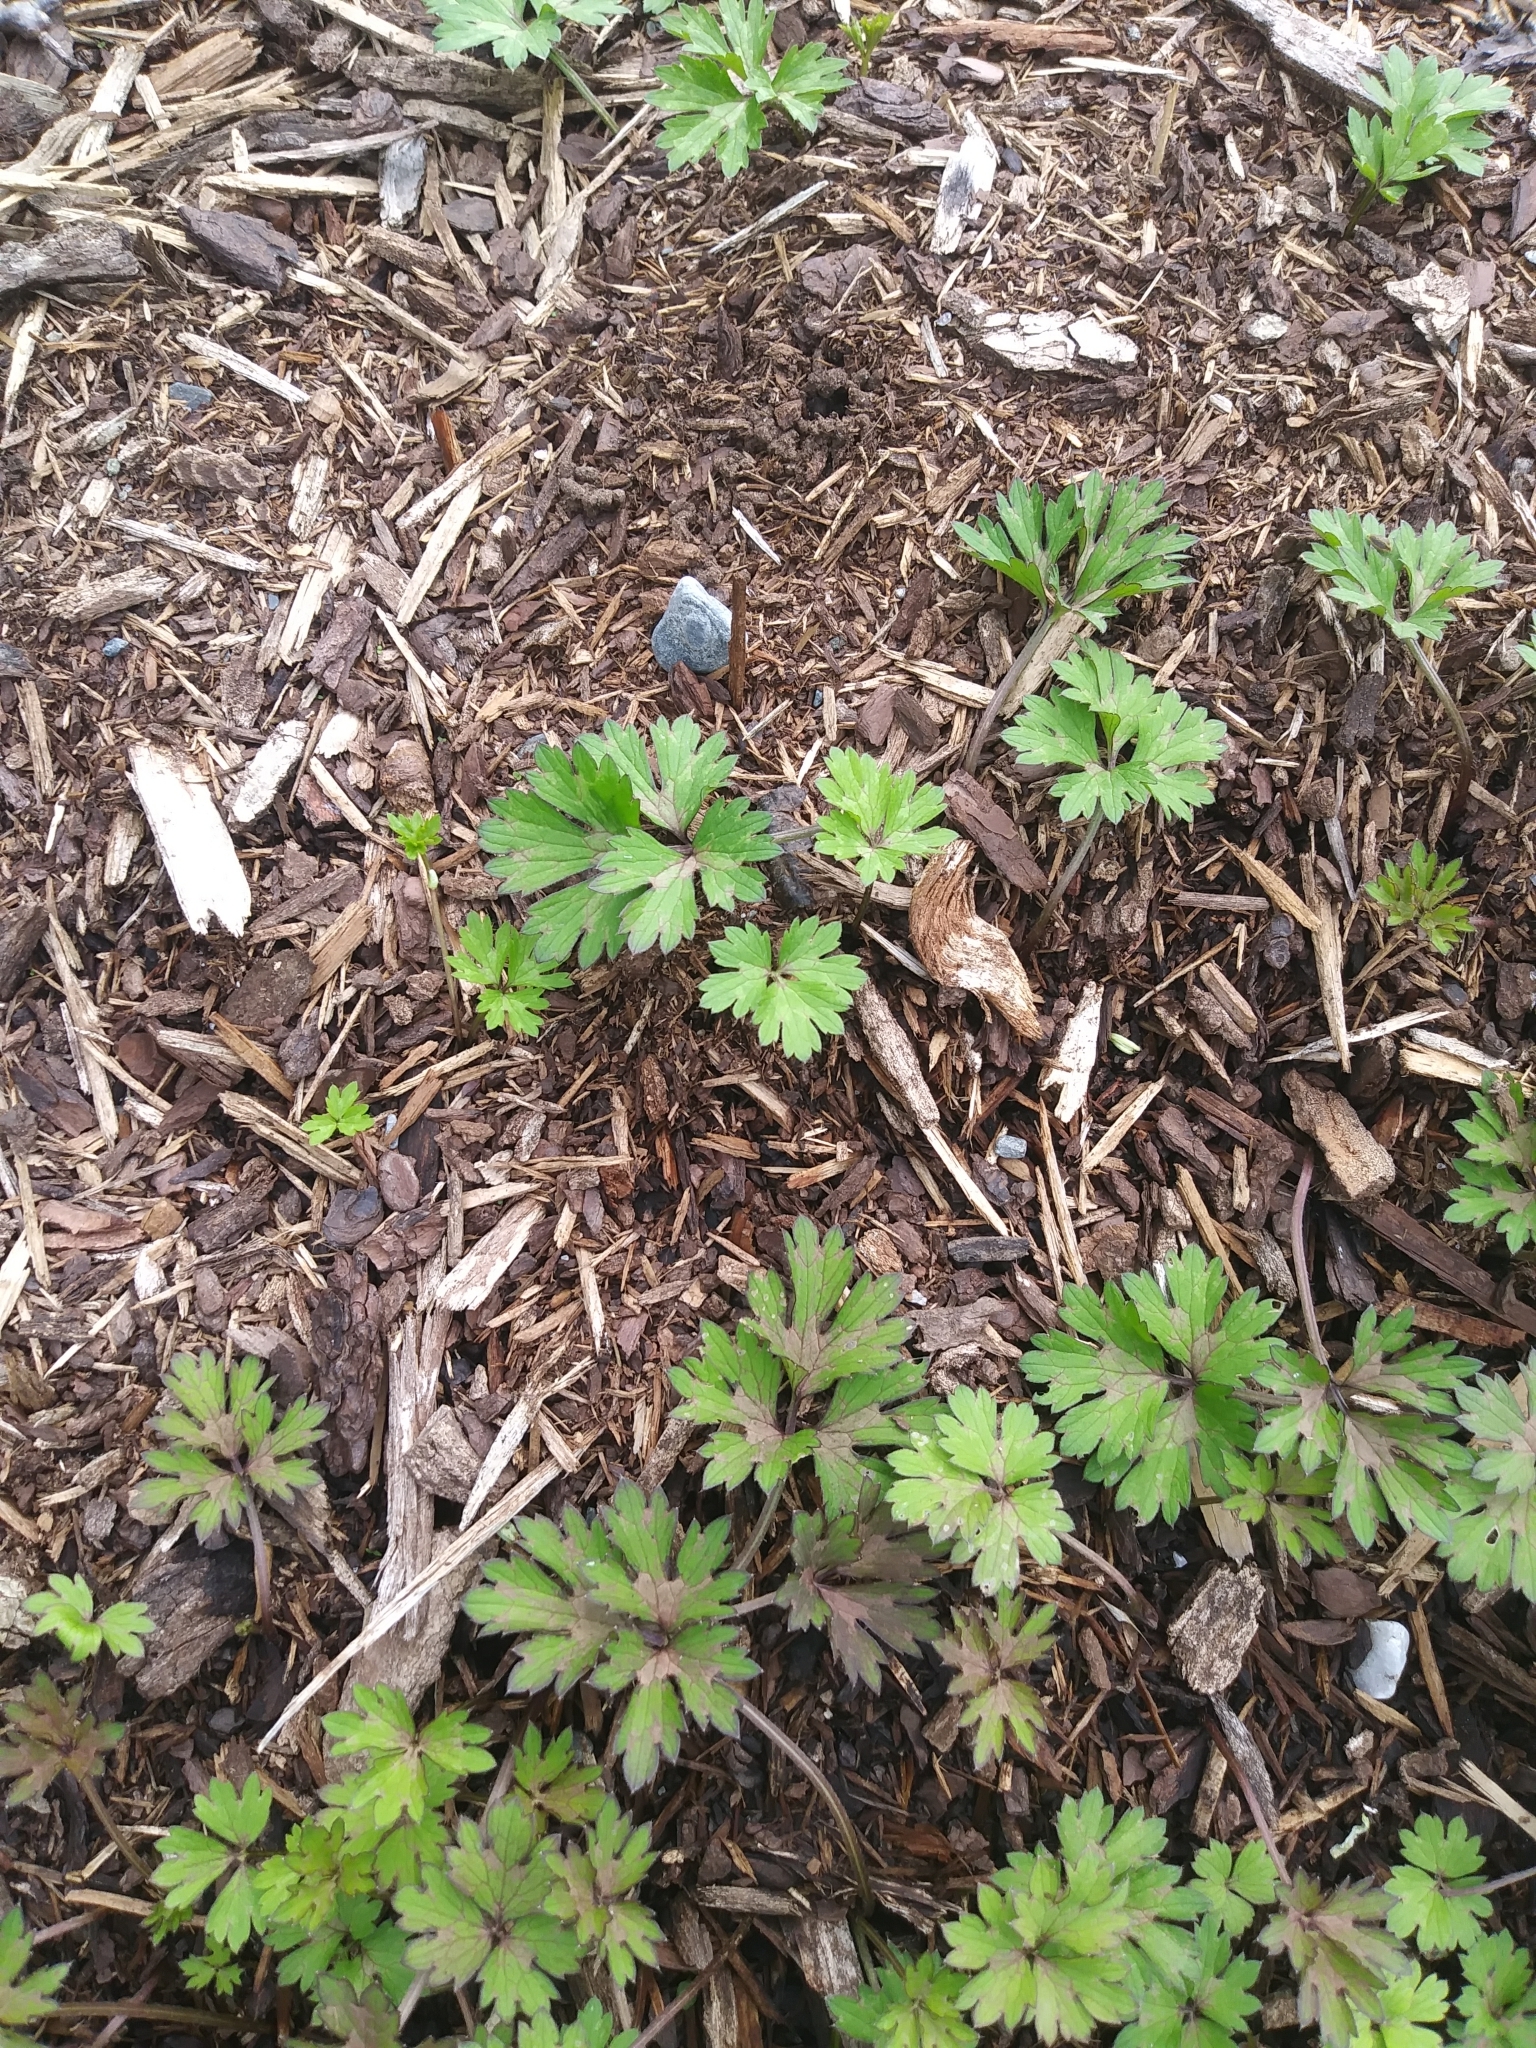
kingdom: Plantae
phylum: Tracheophyta
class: Magnoliopsida
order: Ranunculales
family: Ranunculaceae
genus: Ranunculus
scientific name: Ranunculus repens
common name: Creeping buttercup
